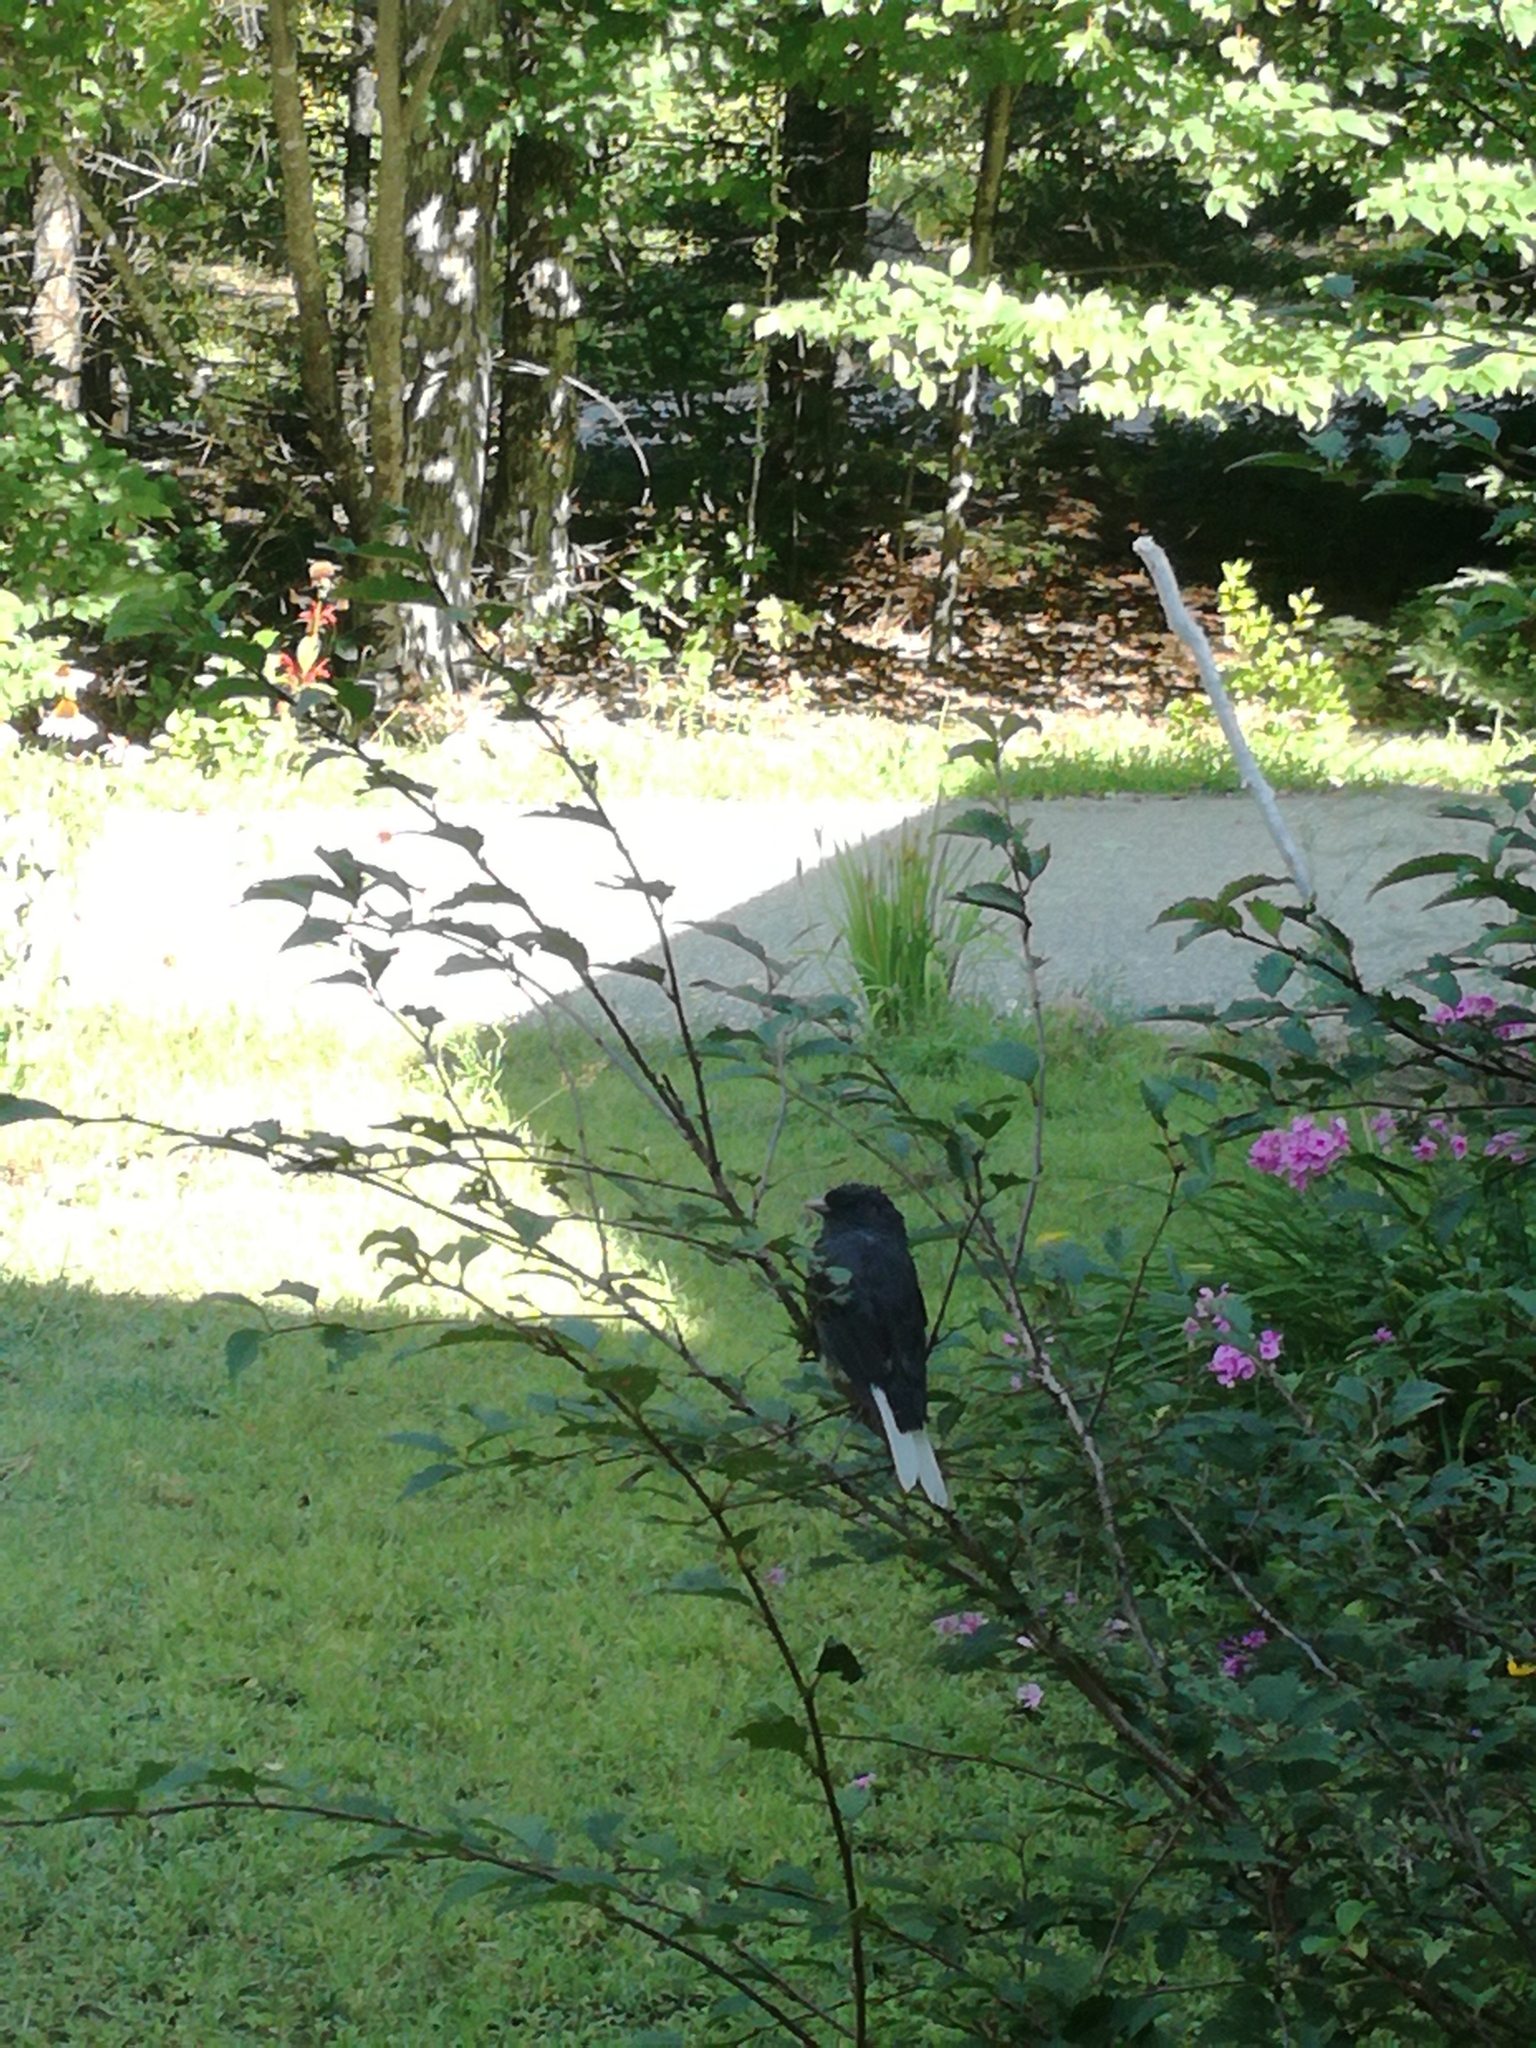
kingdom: Animalia
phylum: Chordata
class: Aves
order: Passeriformes
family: Passerellidae
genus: Junco
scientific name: Junco hyemalis
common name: Dark-eyed junco
